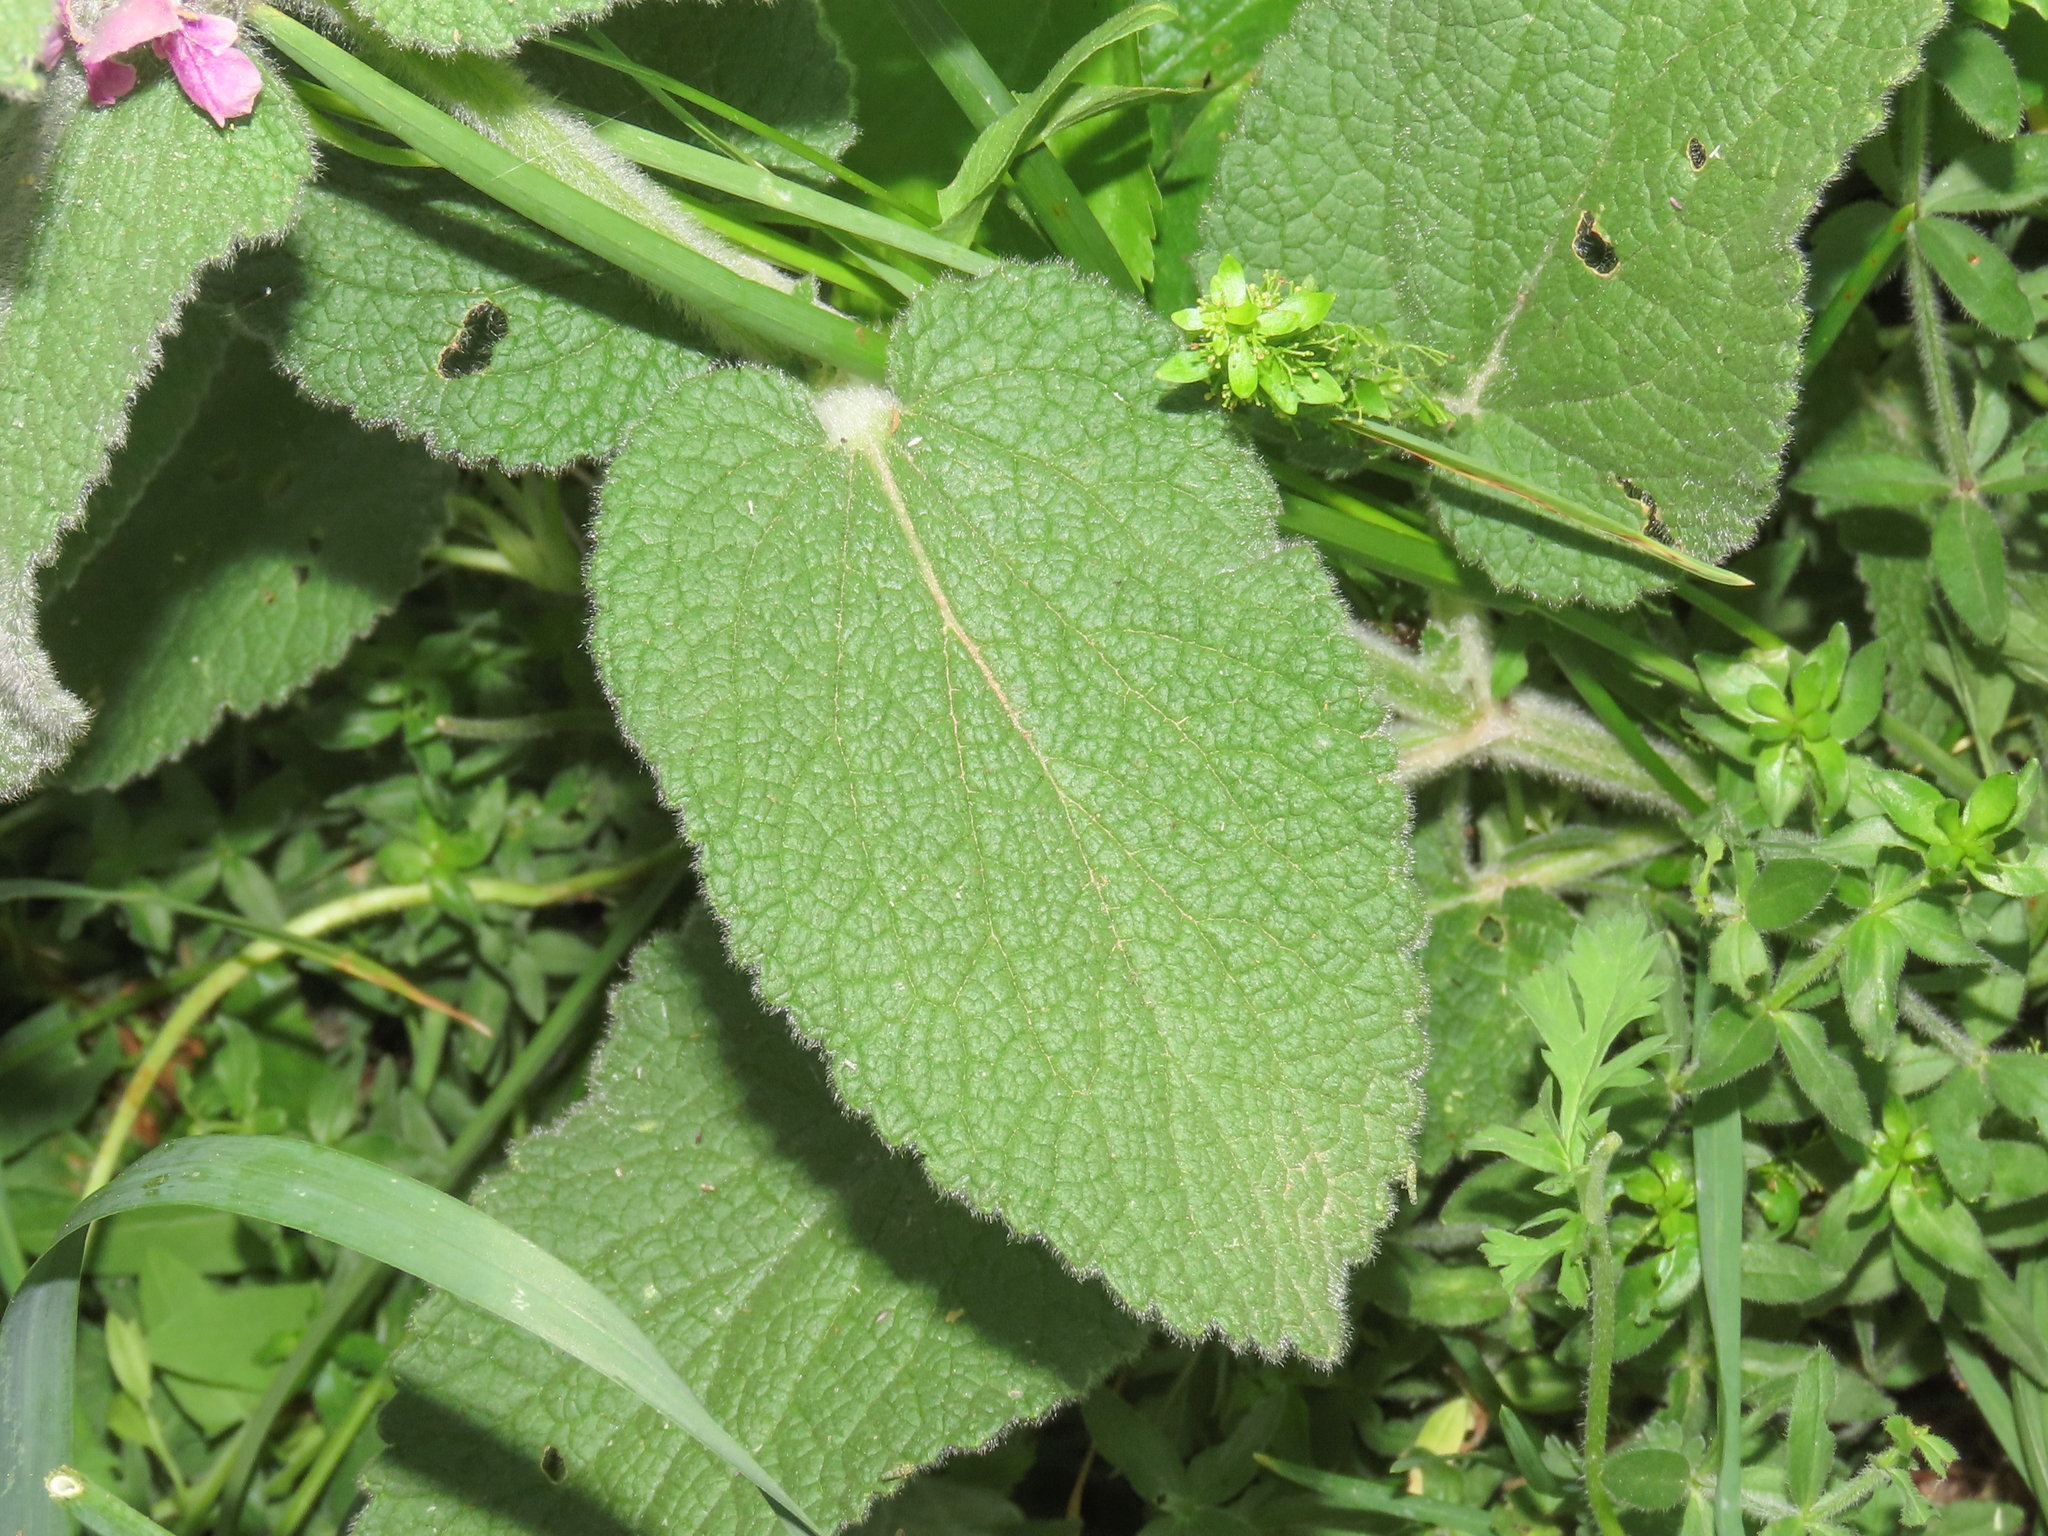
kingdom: Plantae
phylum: Tracheophyta
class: Magnoliopsida
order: Lamiales
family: Lamiaceae
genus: Stachys
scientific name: Stachys germanica
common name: Downy woundwort
